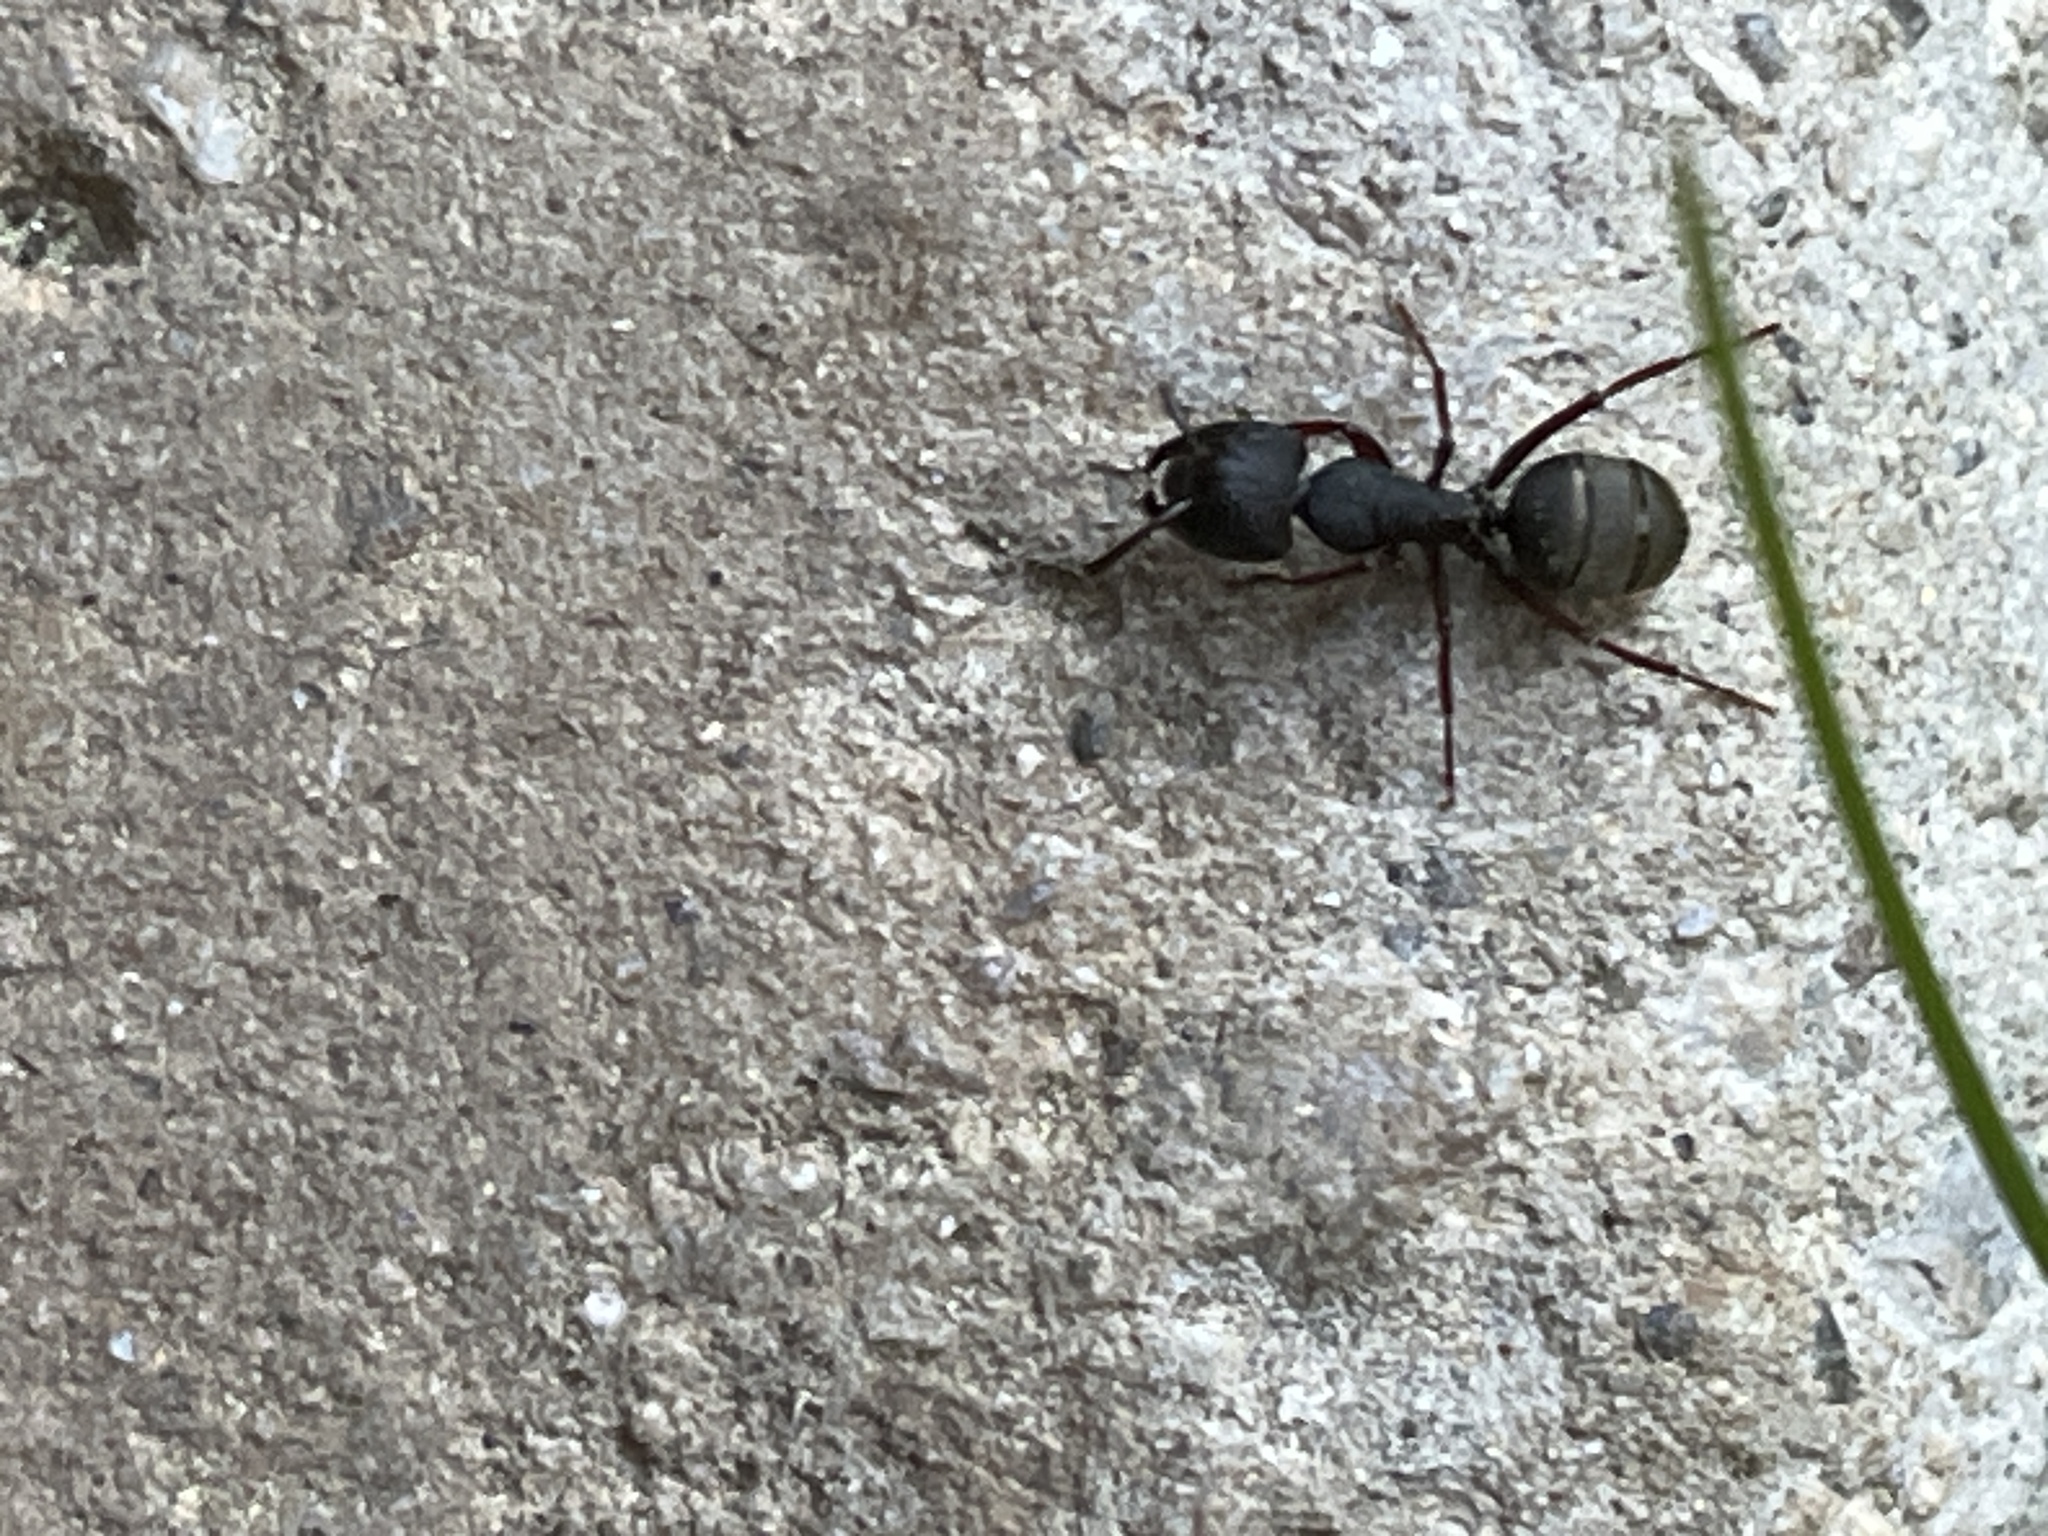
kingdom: Animalia
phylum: Arthropoda
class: Insecta
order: Hymenoptera
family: Formicidae
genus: Camponotus
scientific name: Camponotus modoc
